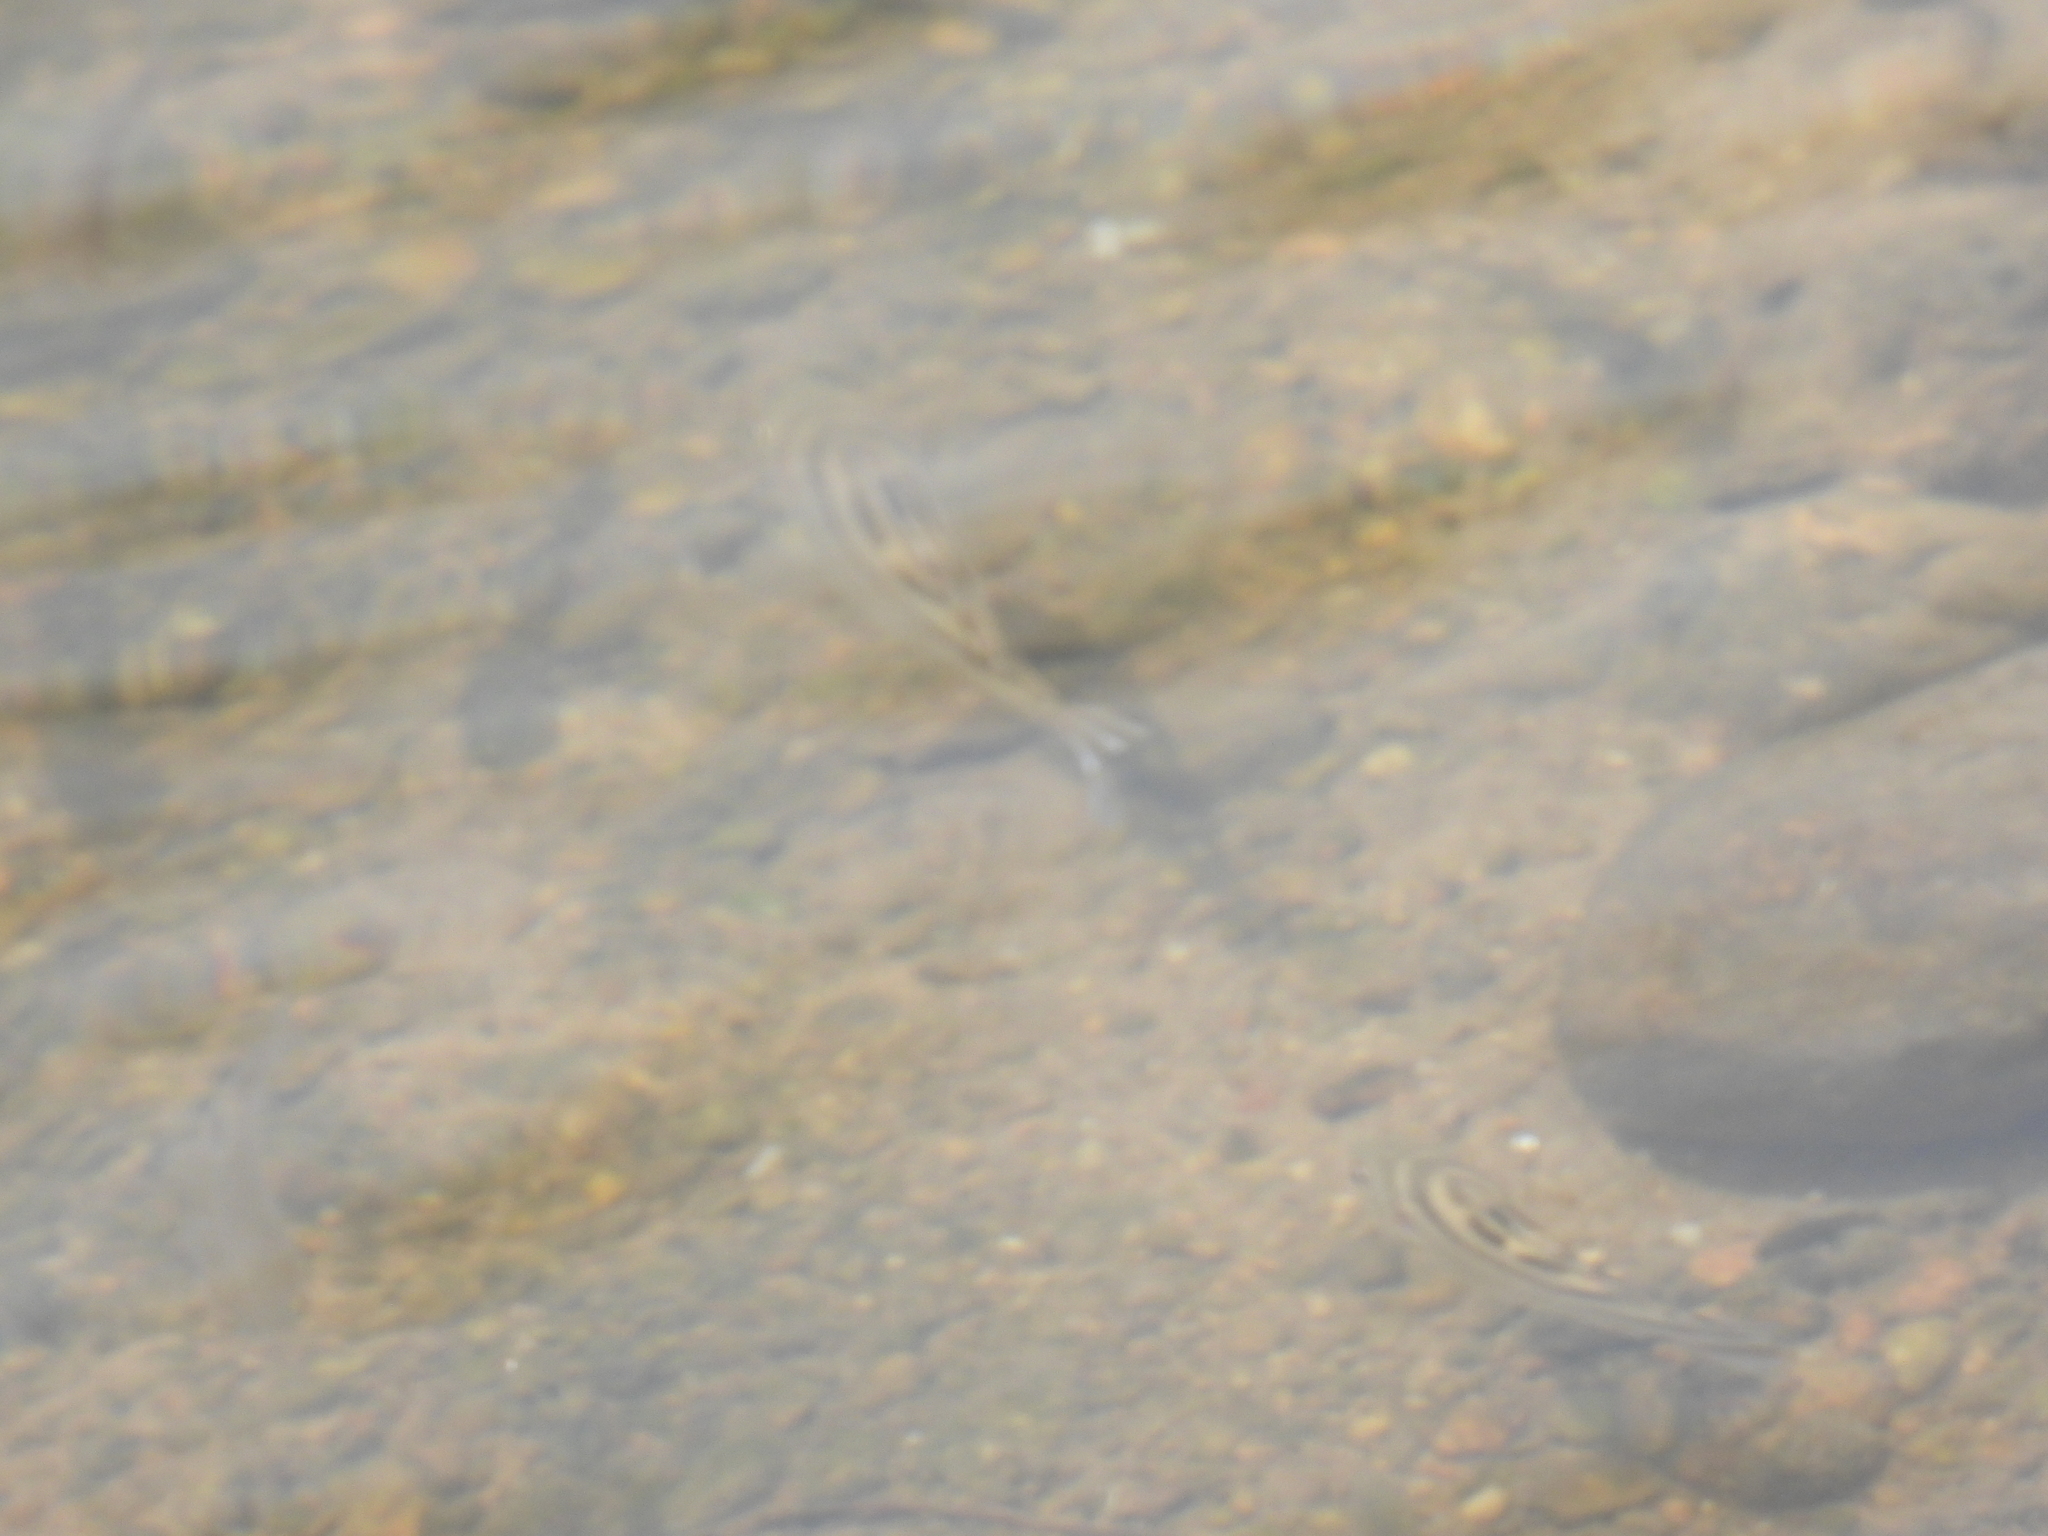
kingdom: Animalia
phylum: Chordata
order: Perciformes
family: Terapontidae
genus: Terapon
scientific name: Terapon jarbua
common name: Jarbua terapon
